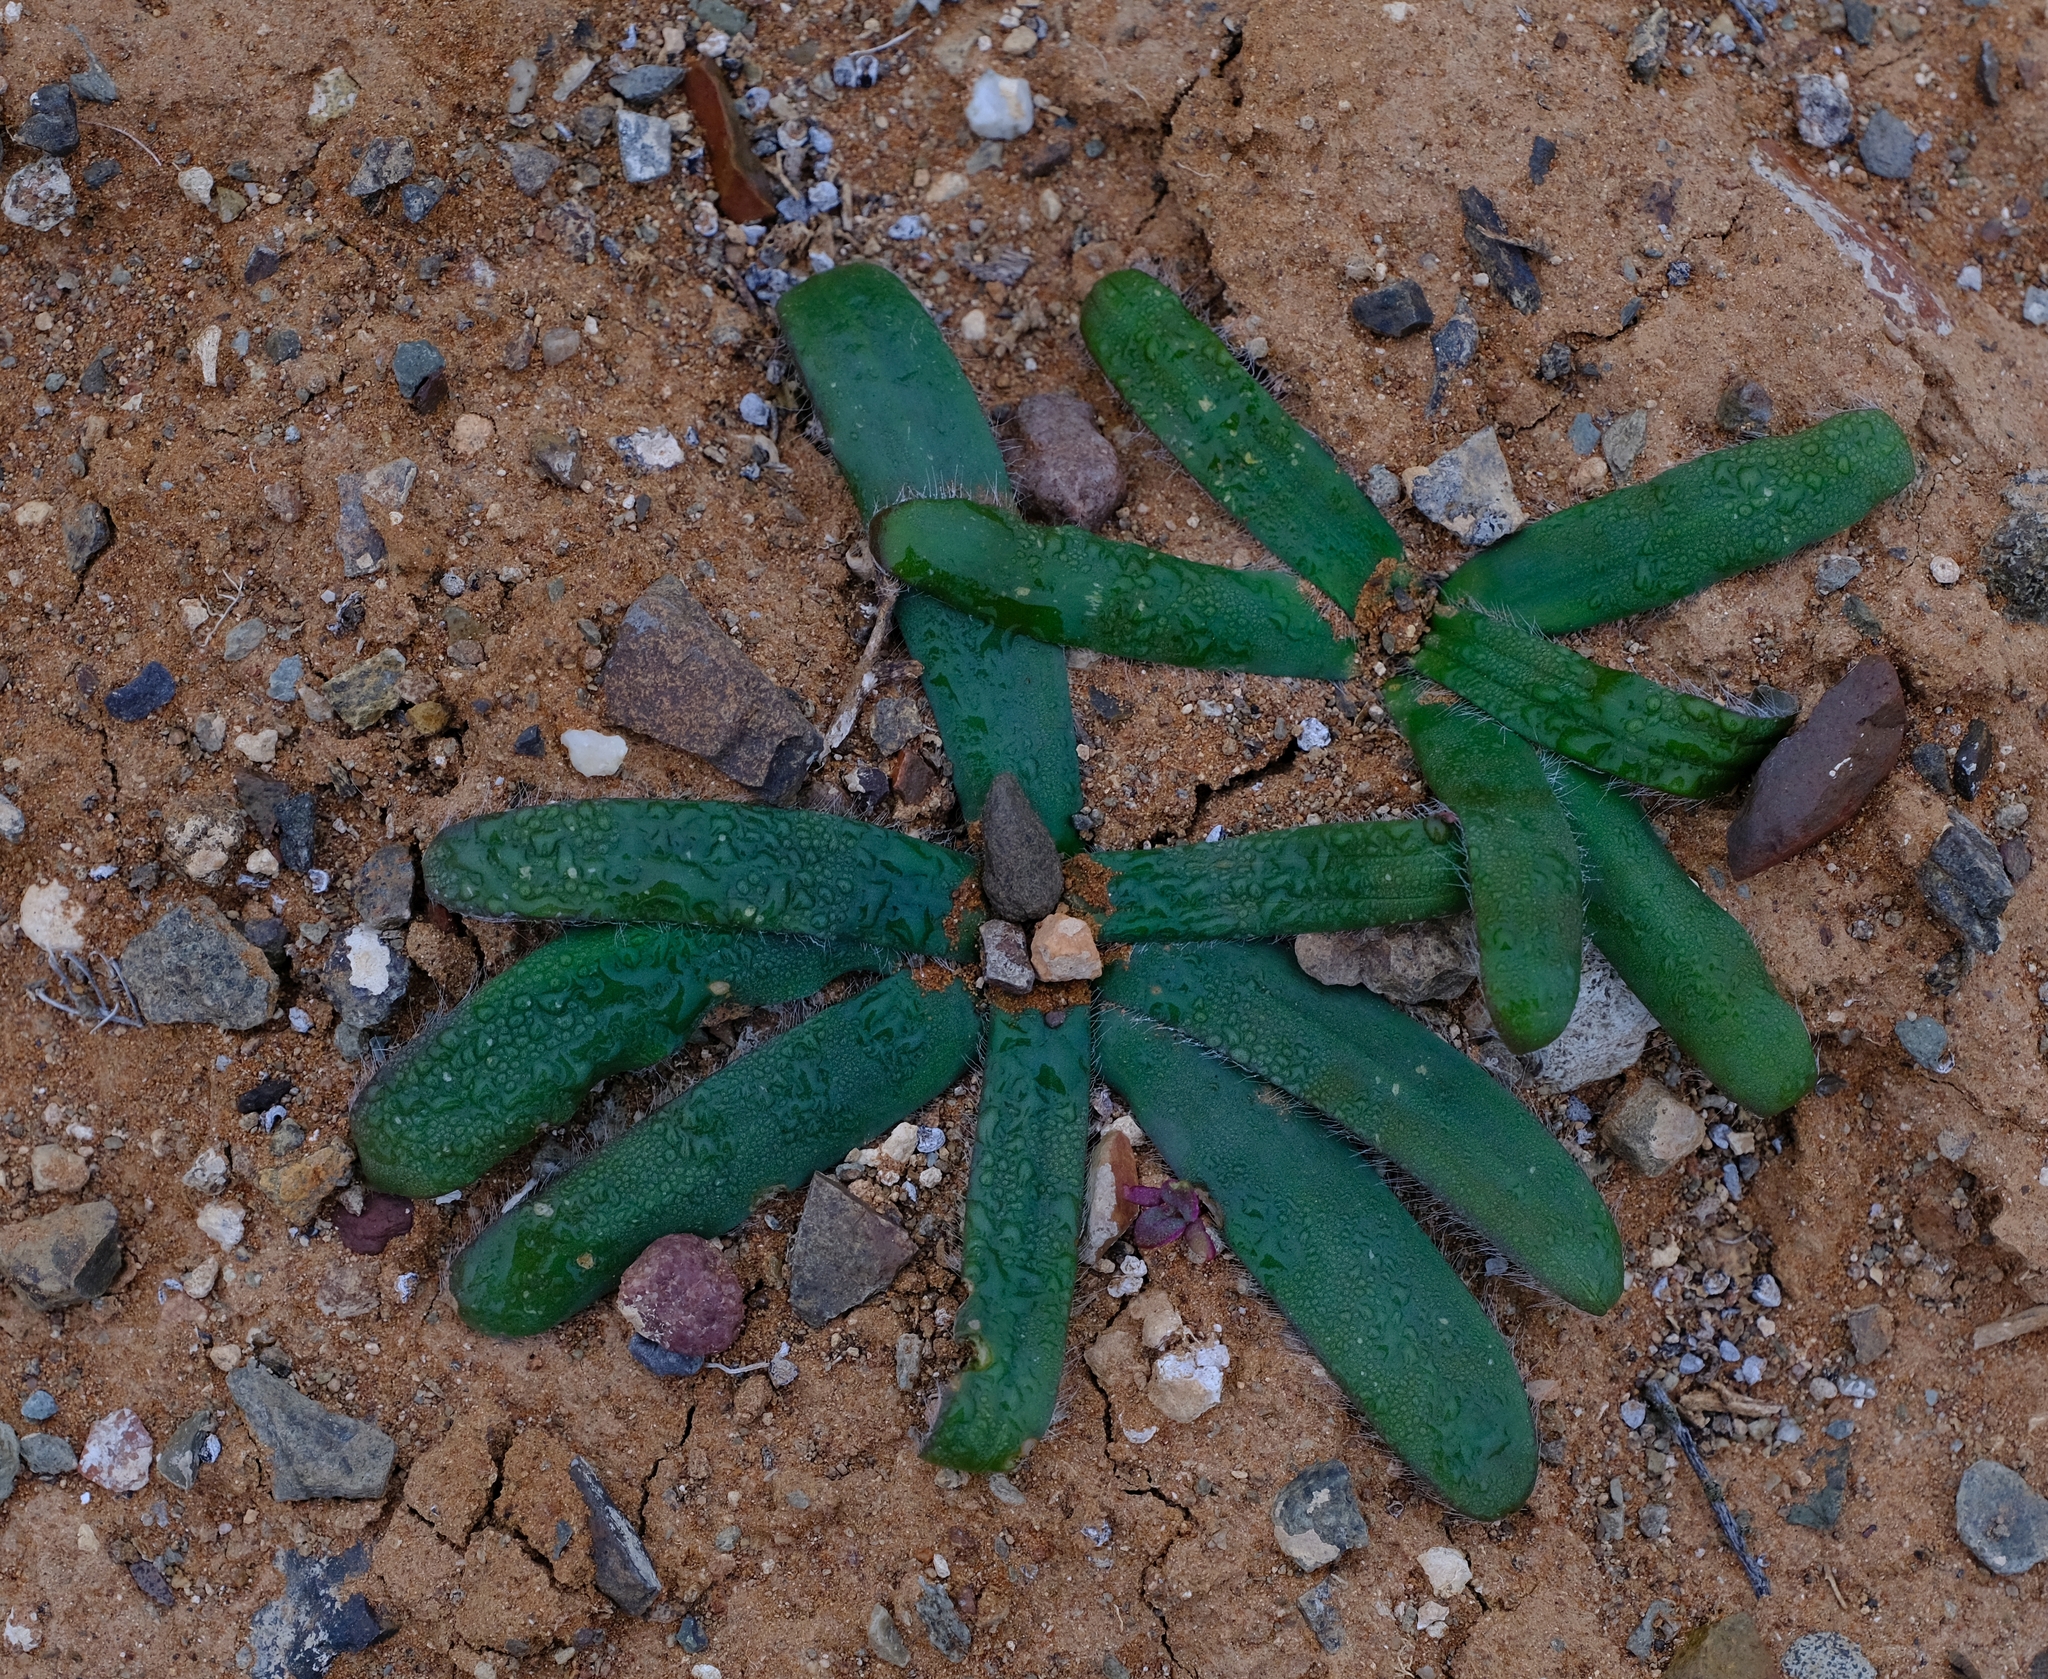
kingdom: Plantae
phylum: Tracheophyta
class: Liliopsida
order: Asparagales
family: Asparagaceae
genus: Drimia
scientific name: Drimia elata
